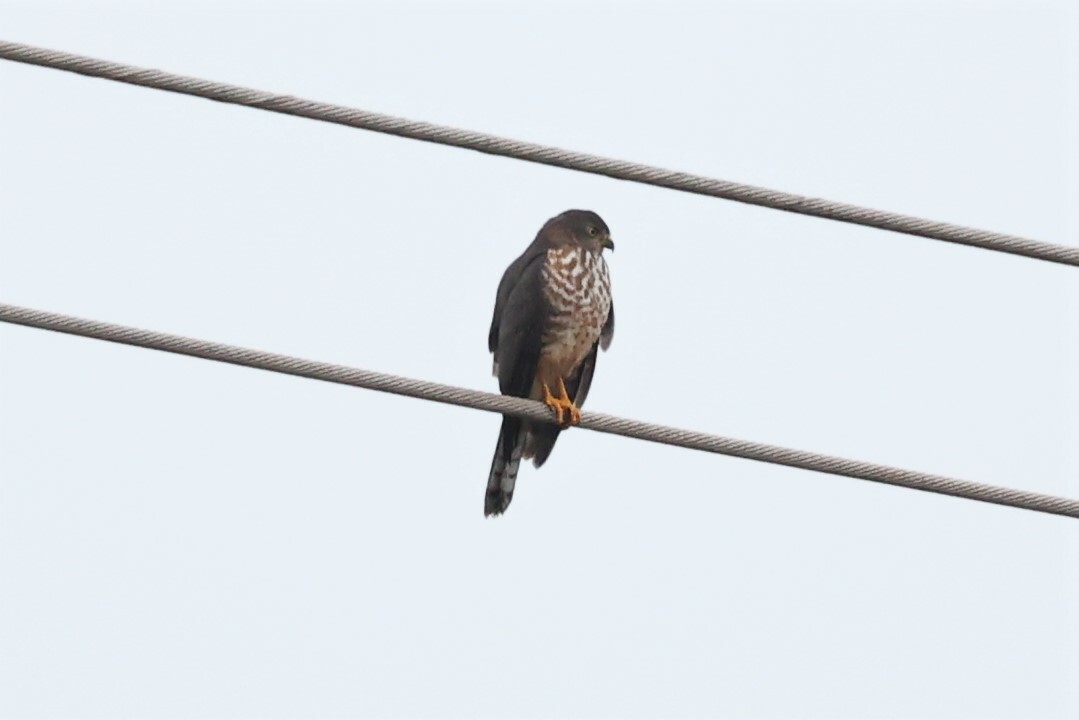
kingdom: Animalia
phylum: Chordata
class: Aves
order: Accipitriformes
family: Accipitridae
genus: Accipiter
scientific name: Accipiter badius
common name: Shikra
